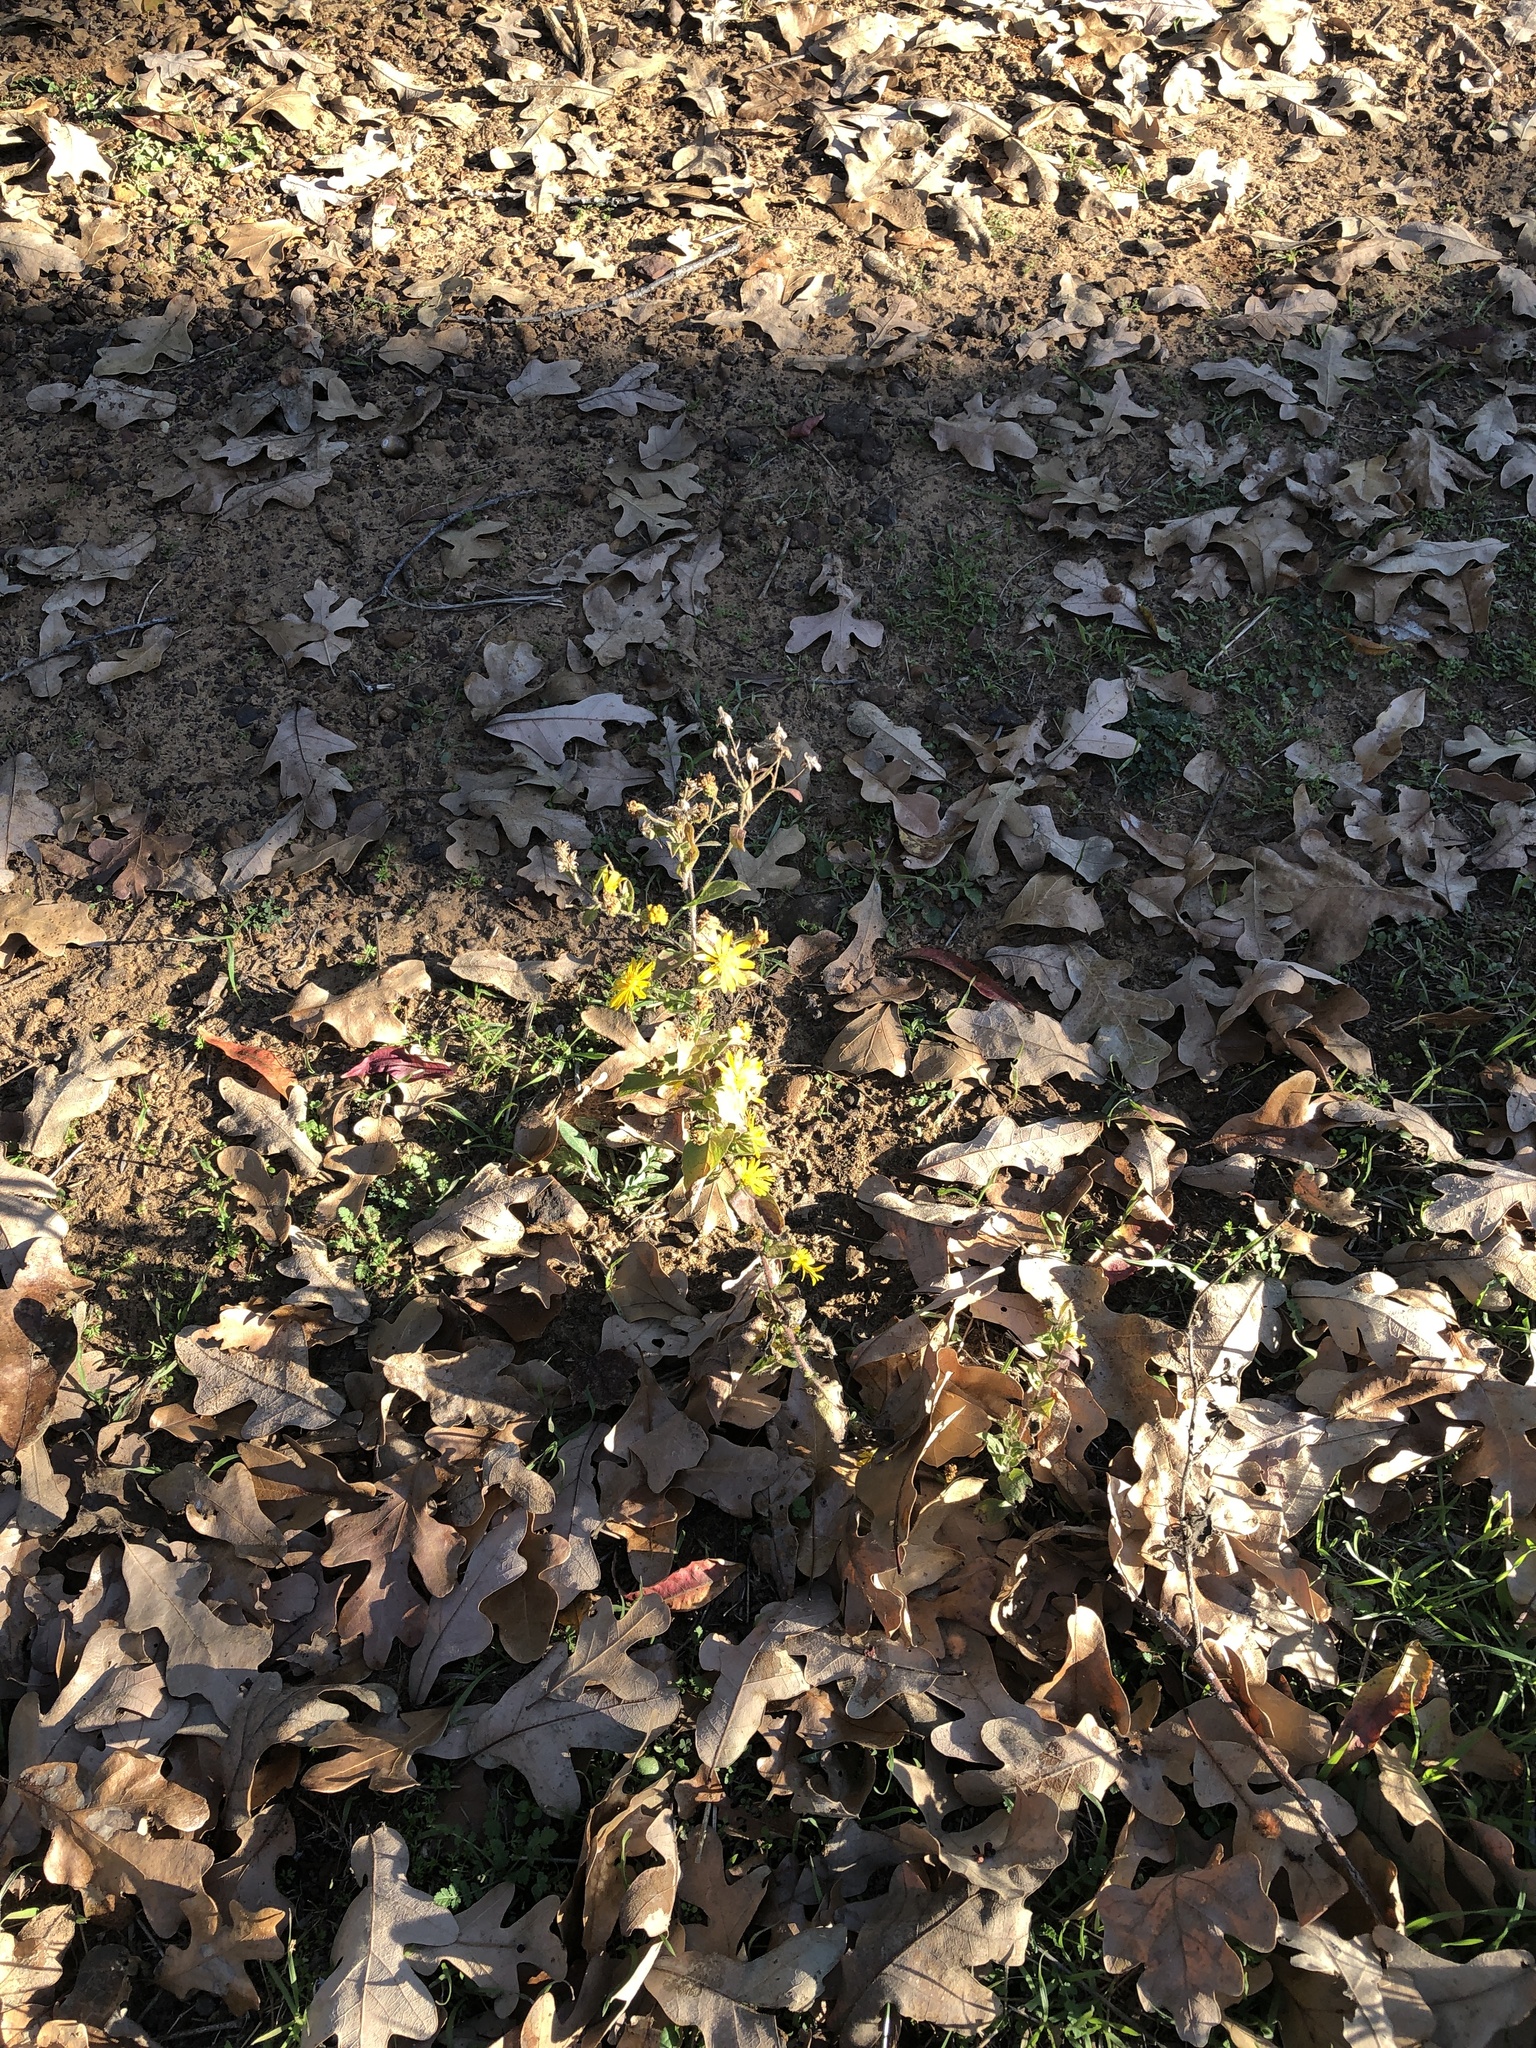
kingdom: Plantae
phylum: Tracheophyta
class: Magnoliopsida
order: Asterales
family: Asteraceae
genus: Heterotheca
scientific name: Heterotheca subaxillaris
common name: Camphorweed
